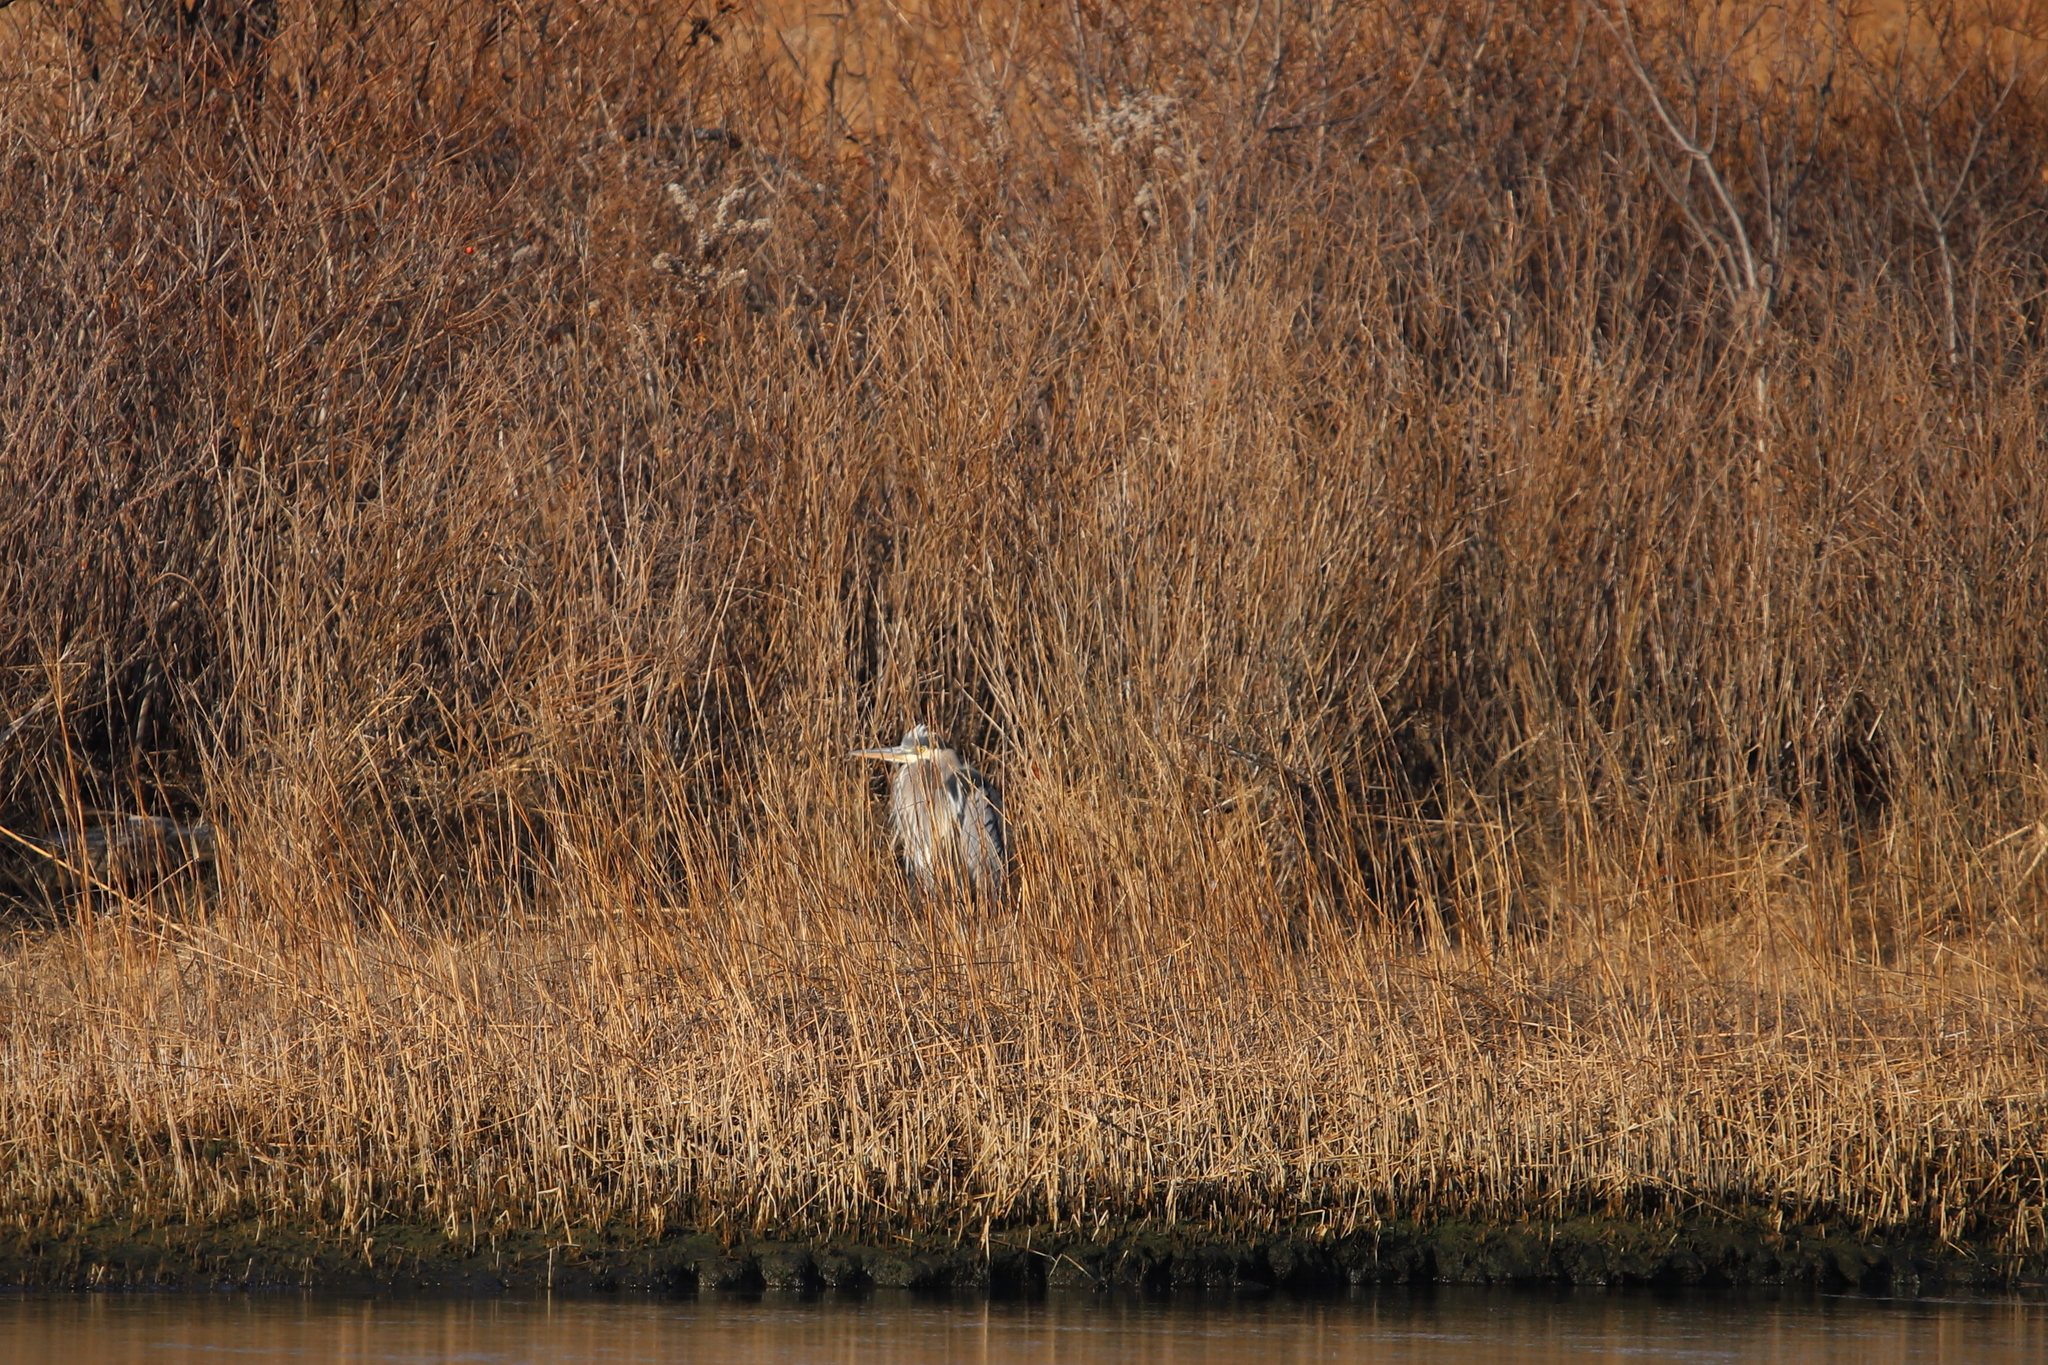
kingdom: Animalia
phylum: Chordata
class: Aves
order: Pelecaniformes
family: Ardeidae
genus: Ardea
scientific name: Ardea herodias
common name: Great blue heron
